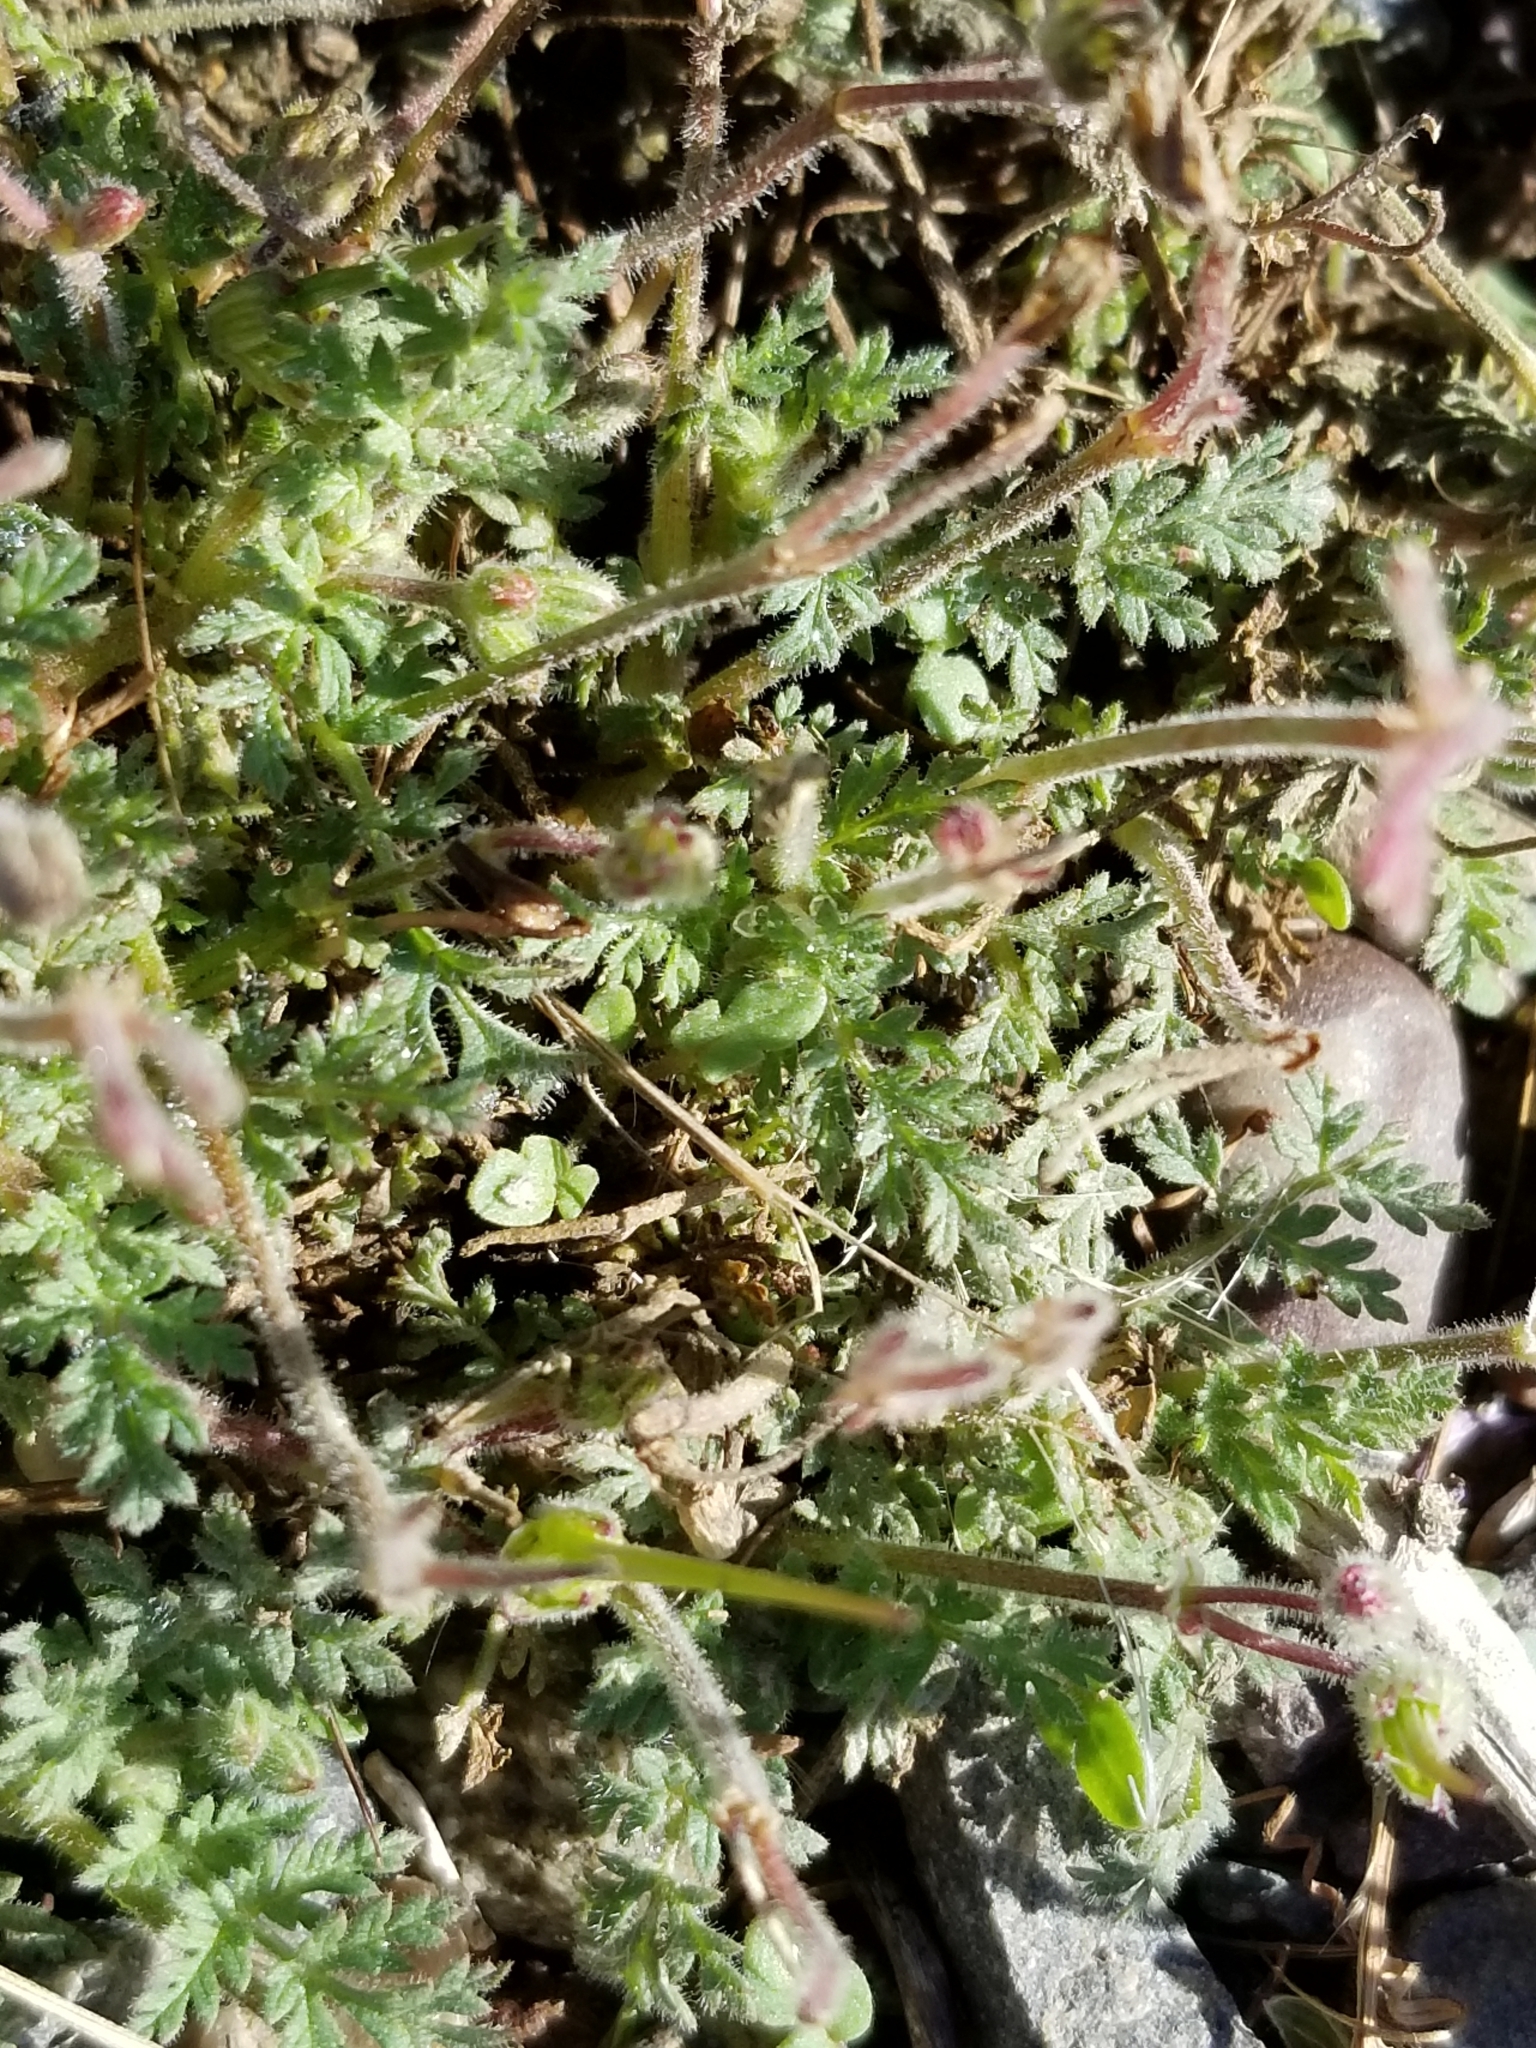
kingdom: Plantae
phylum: Tracheophyta
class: Magnoliopsida
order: Geraniales
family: Geraniaceae
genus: Erodium
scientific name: Erodium cicutarium
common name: Common stork's-bill
